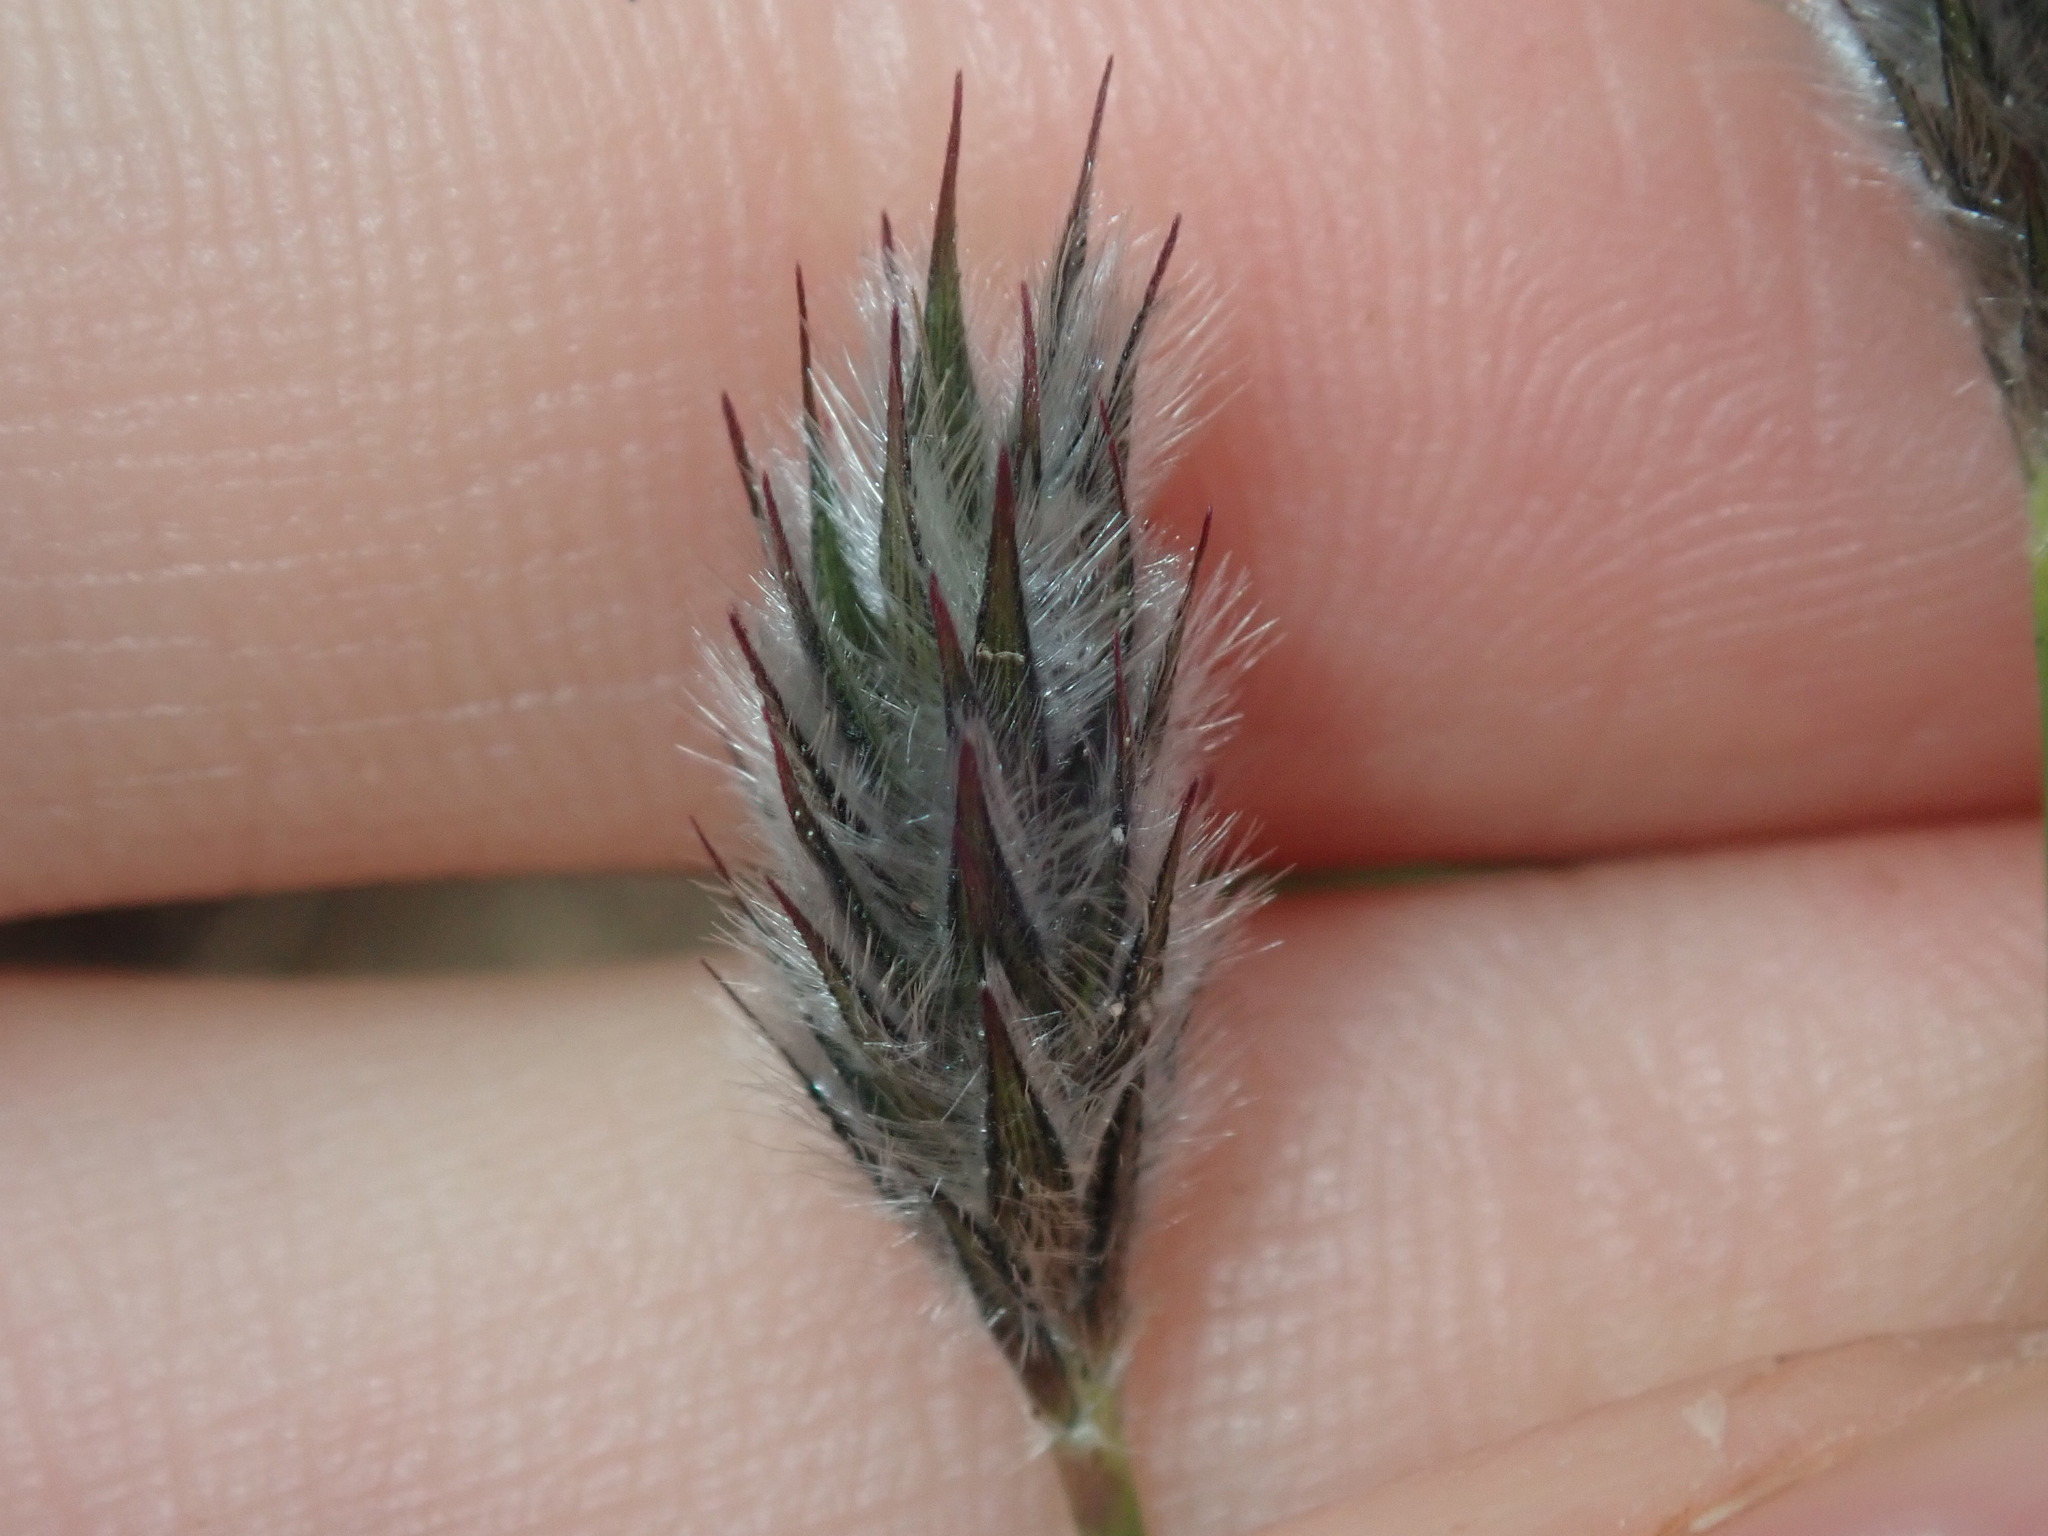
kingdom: Plantae
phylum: Tracheophyta
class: Liliopsida
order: Poales
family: Poaceae
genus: Neurachne
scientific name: Neurachne alopecuroidea
